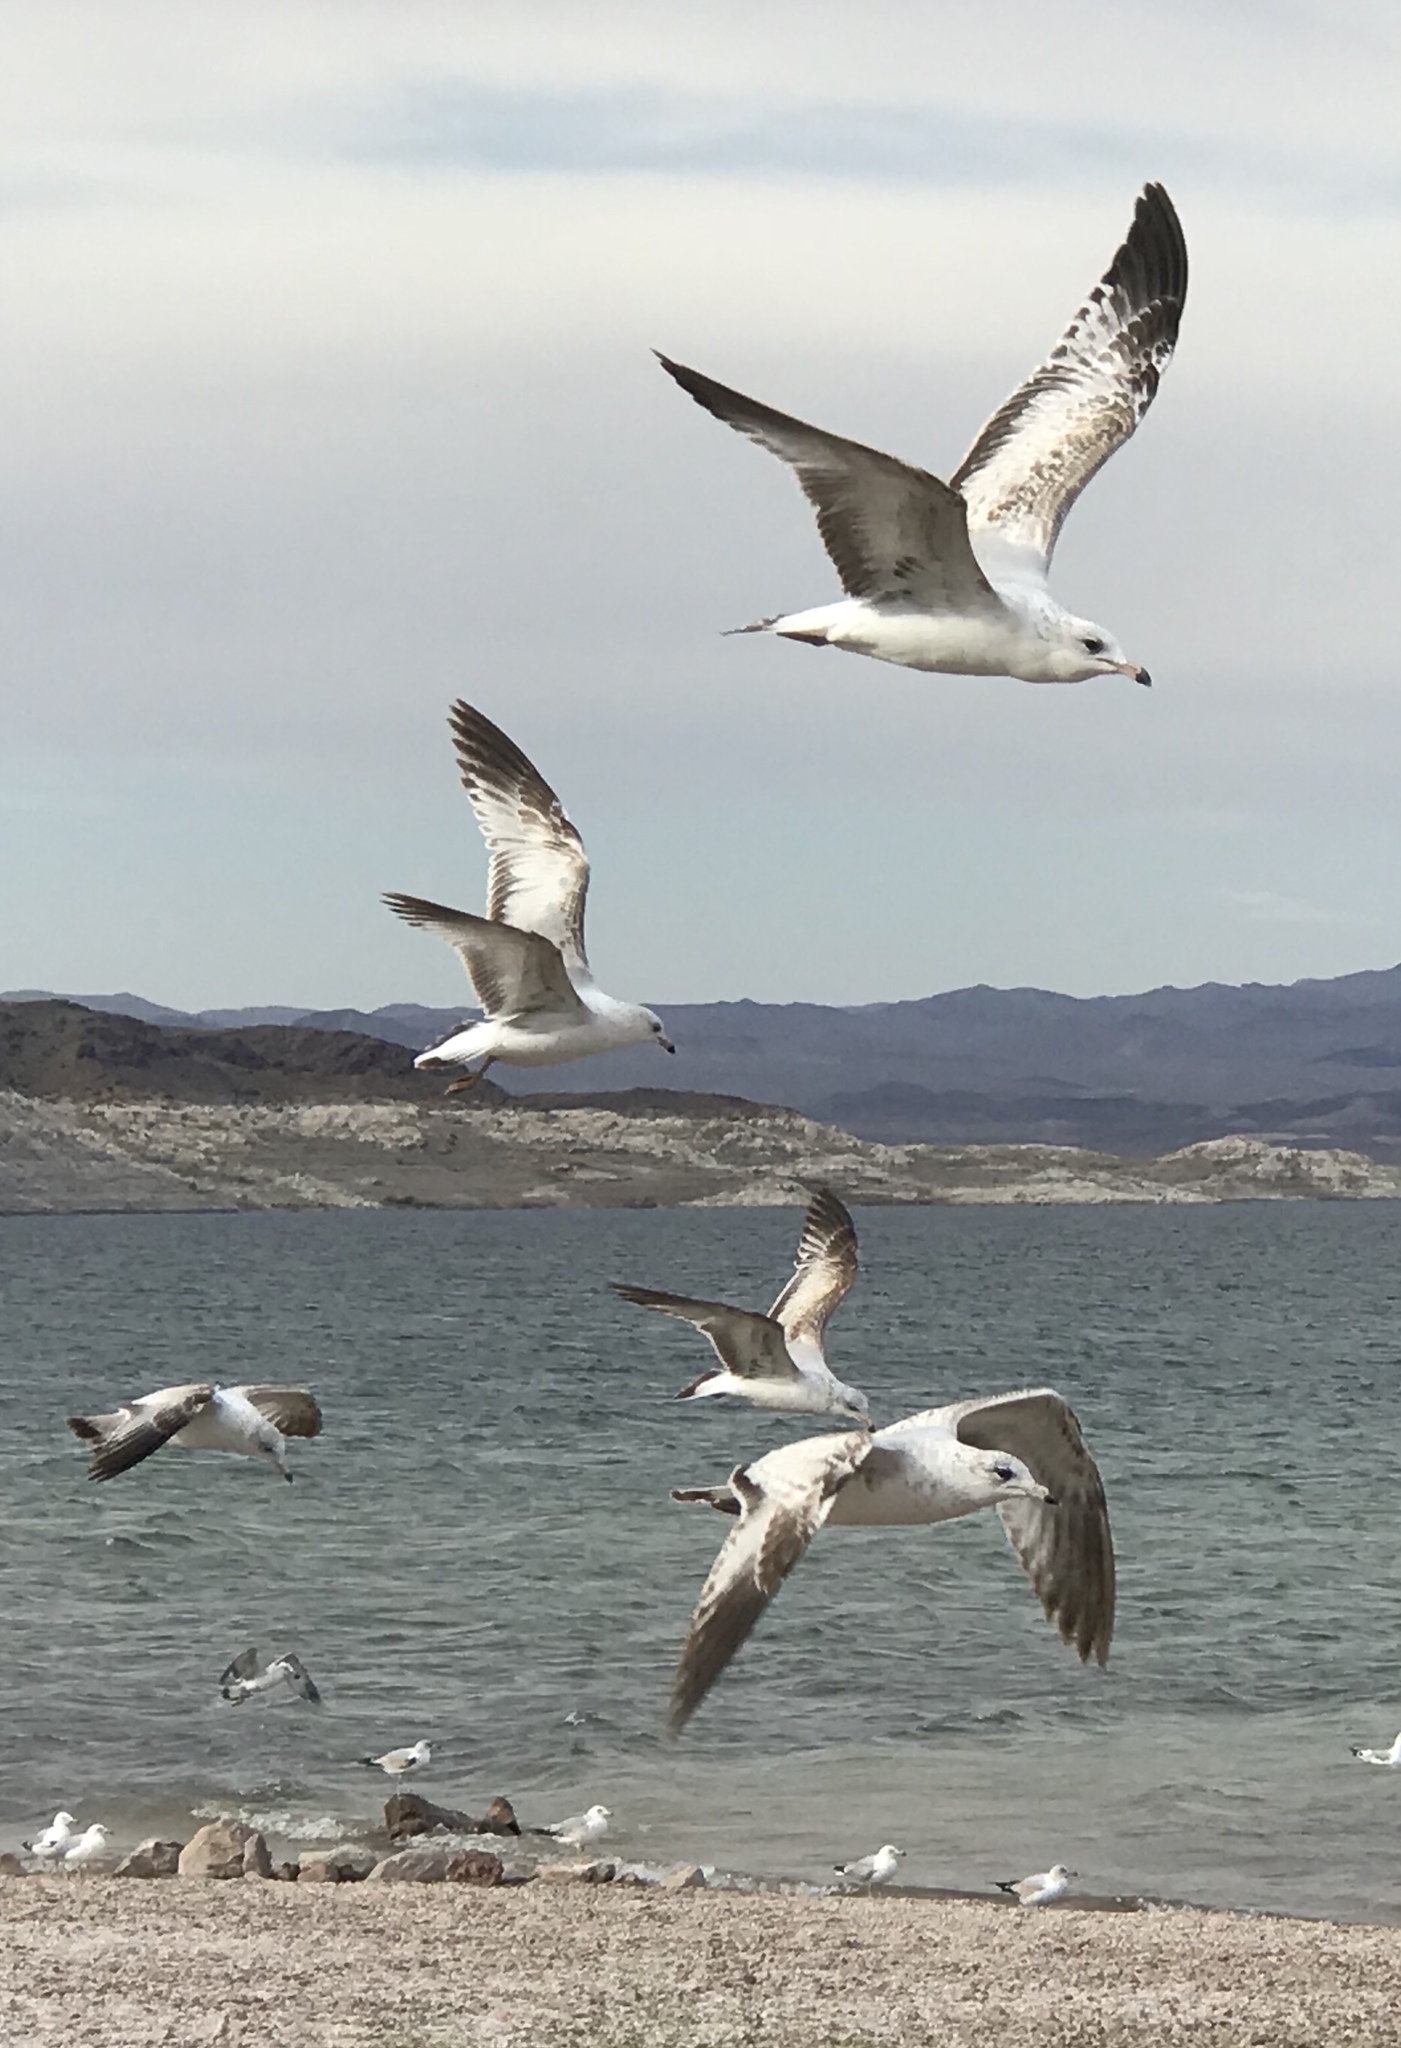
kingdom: Animalia
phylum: Chordata
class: Aves
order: Charadriiformes
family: Laridae
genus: Larus
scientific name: Larus delawarensis
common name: Ring-billed gull
